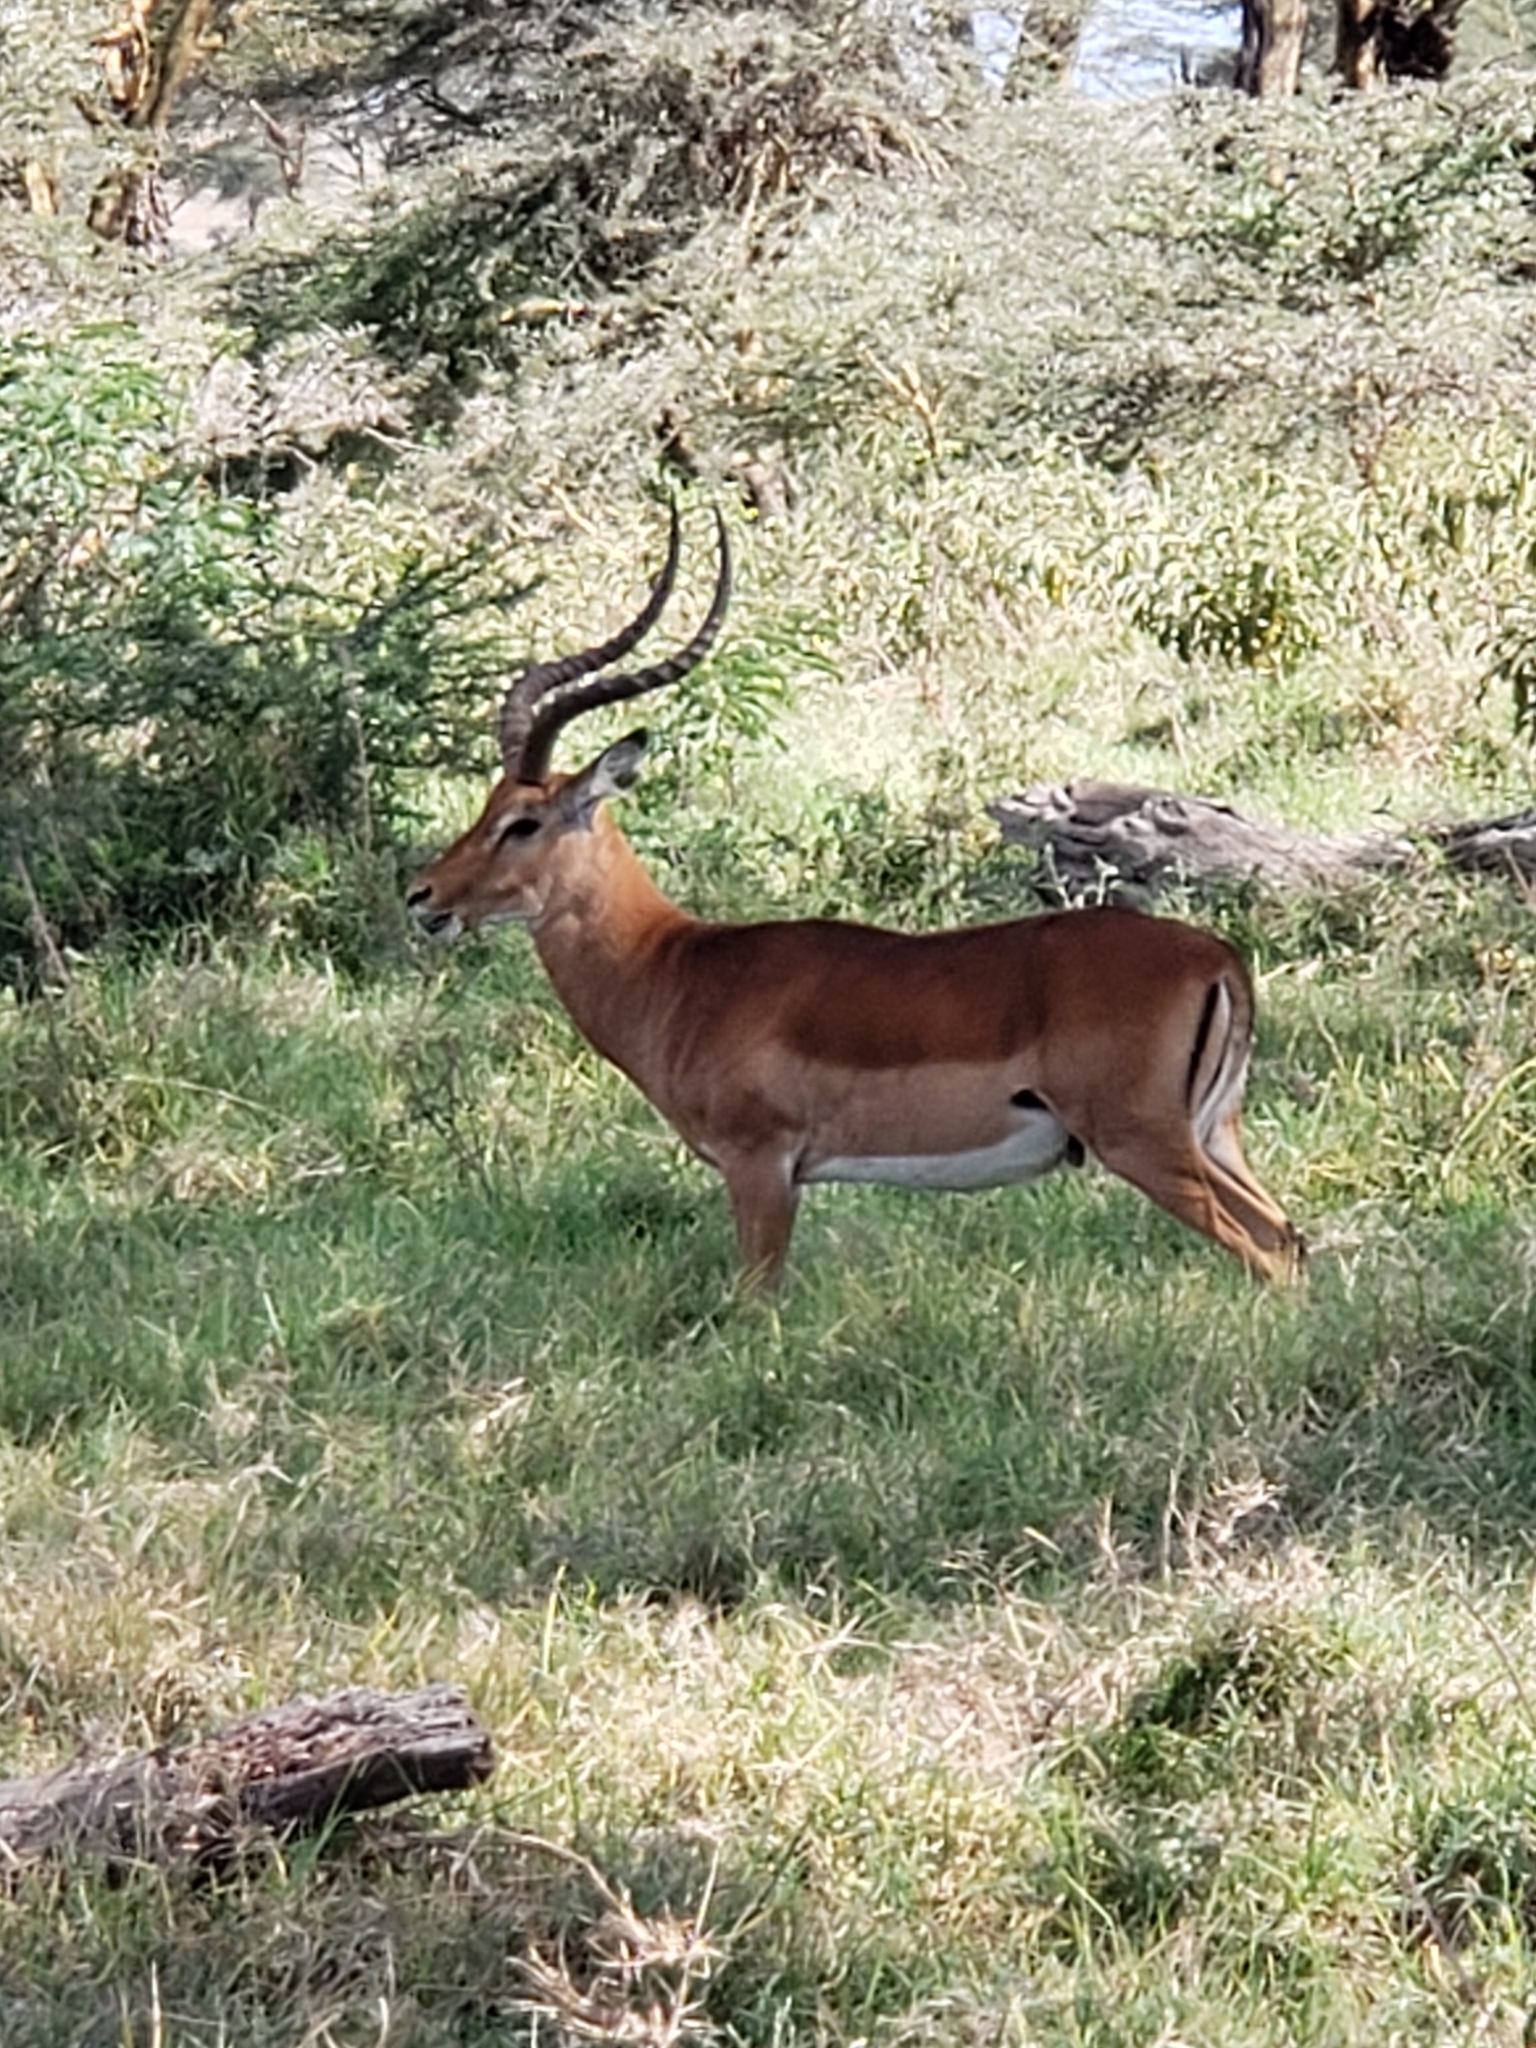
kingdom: Animalia
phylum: Chordata
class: Mammalia
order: Artiodactyla
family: Bovidae
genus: Aepyceros
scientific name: Aepyceros melampus
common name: Impala
